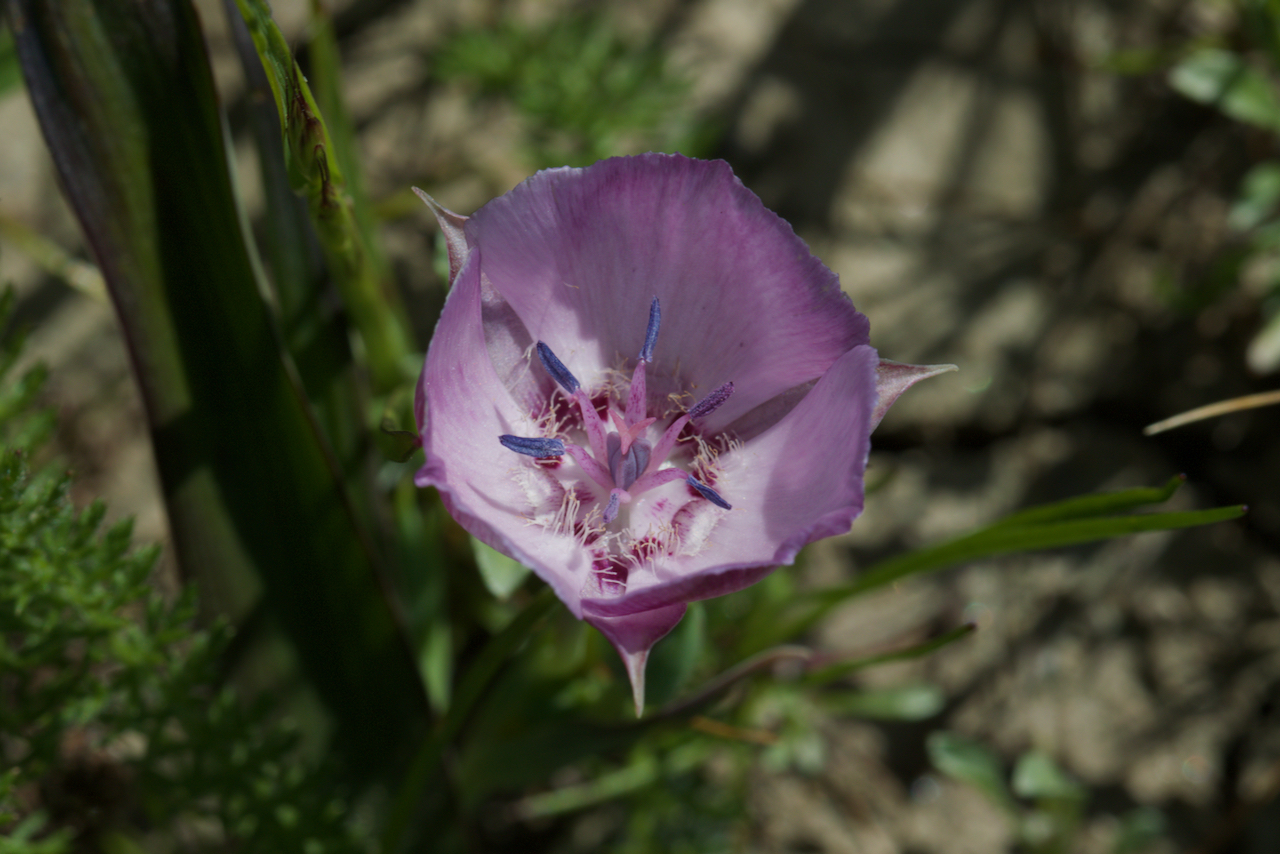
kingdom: Plantae
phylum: Tracheophyta
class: Liliopsida
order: Liliales
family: Liliaceae
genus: Calochortus
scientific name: Calochortus umbellatus
